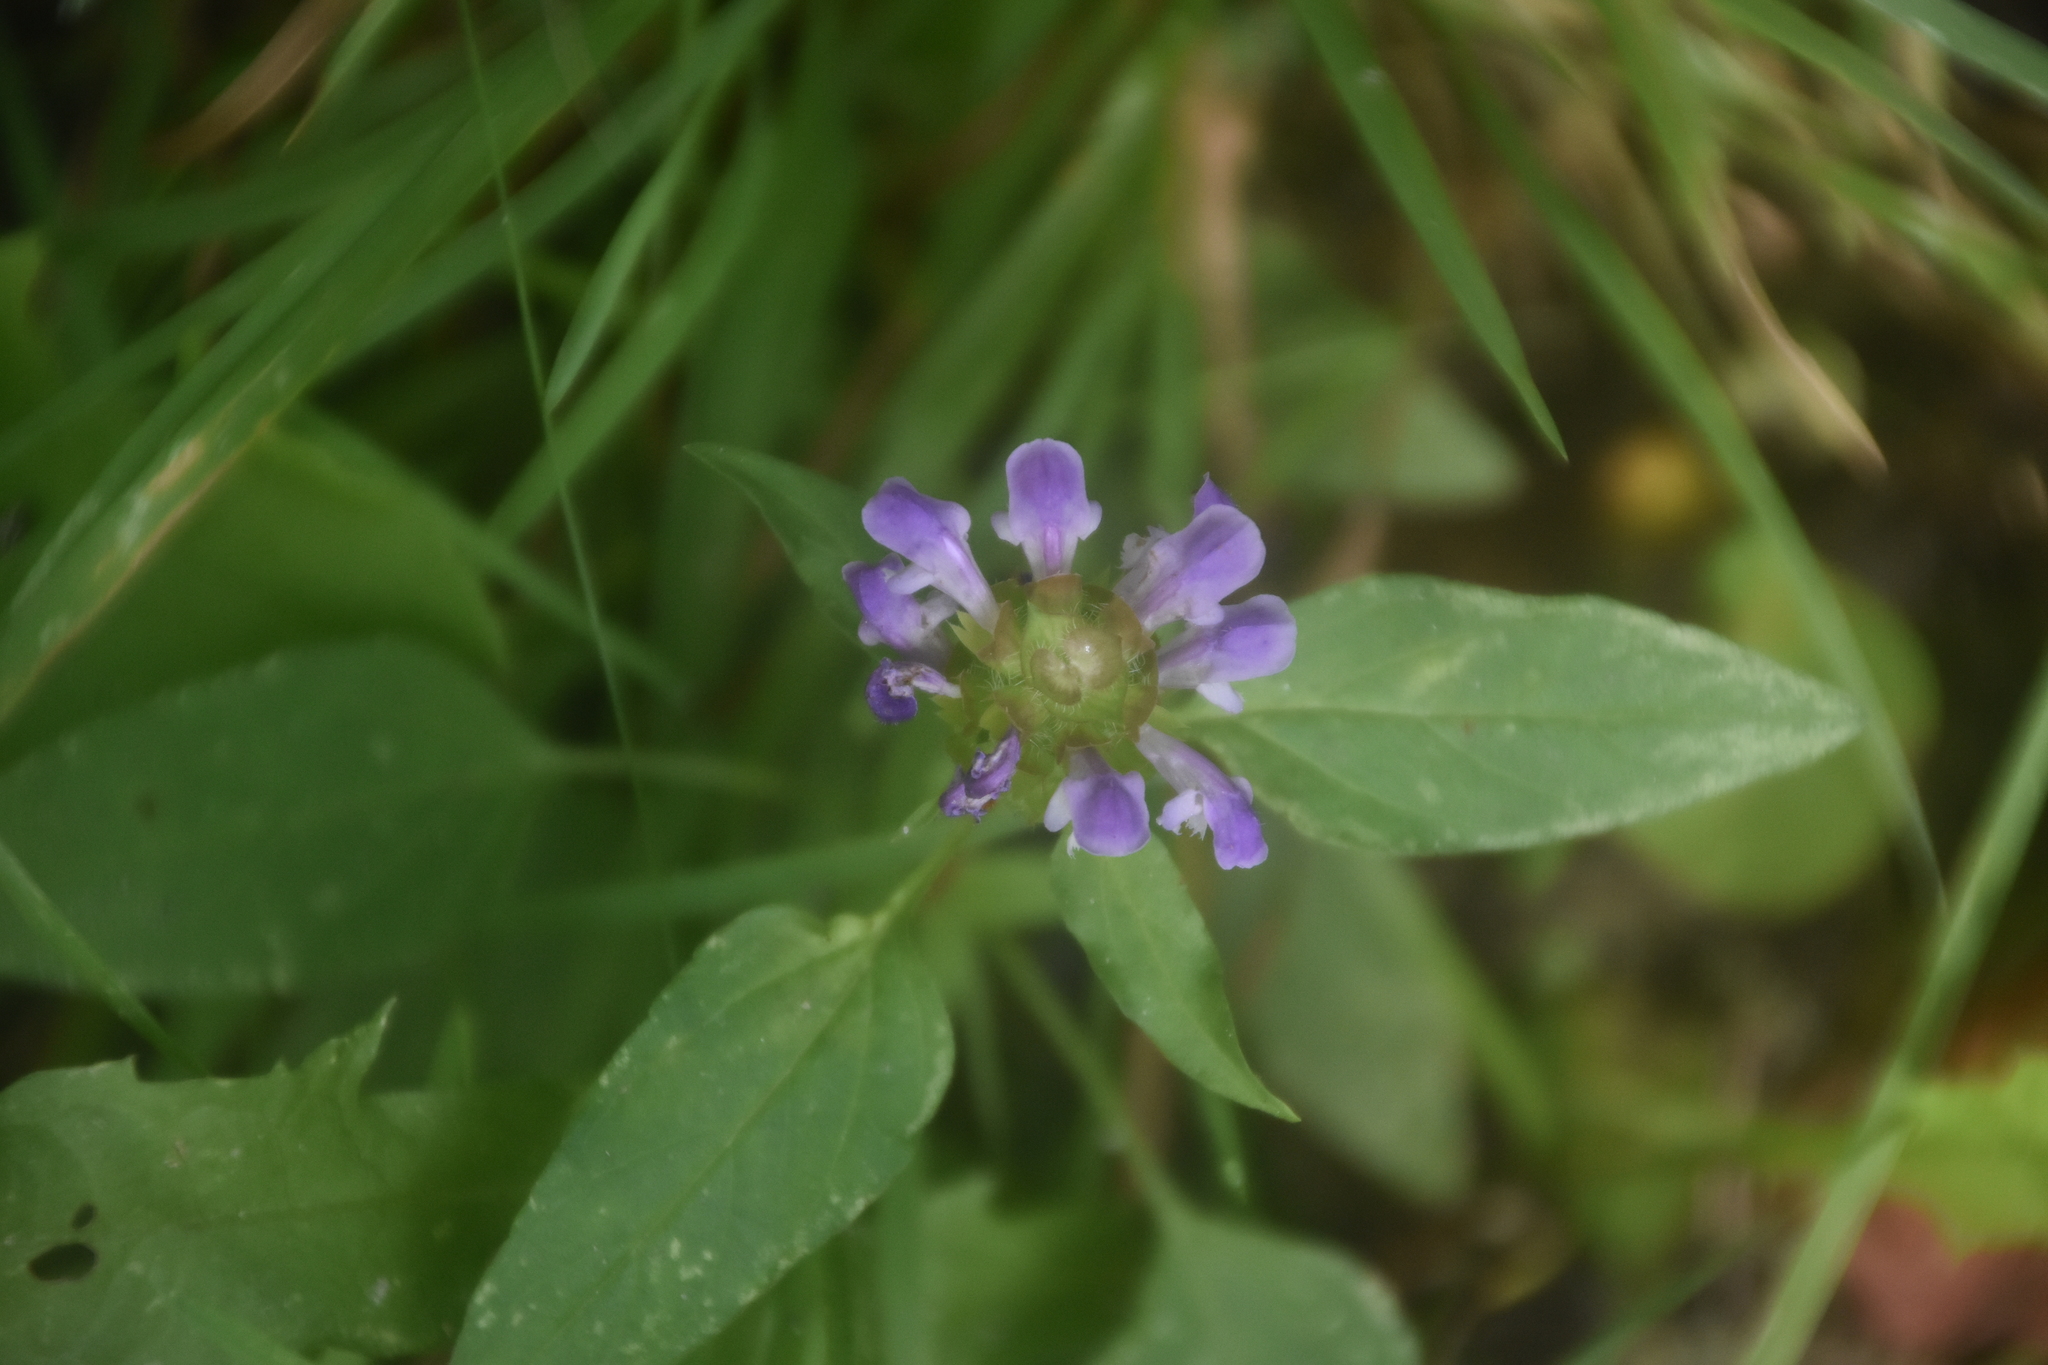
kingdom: Plantae
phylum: Tracheophyta
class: Magnoliopsida
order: Lamiales
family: Lamiaceae
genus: Prunella
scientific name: Prunella vulgaris
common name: Heal-all
